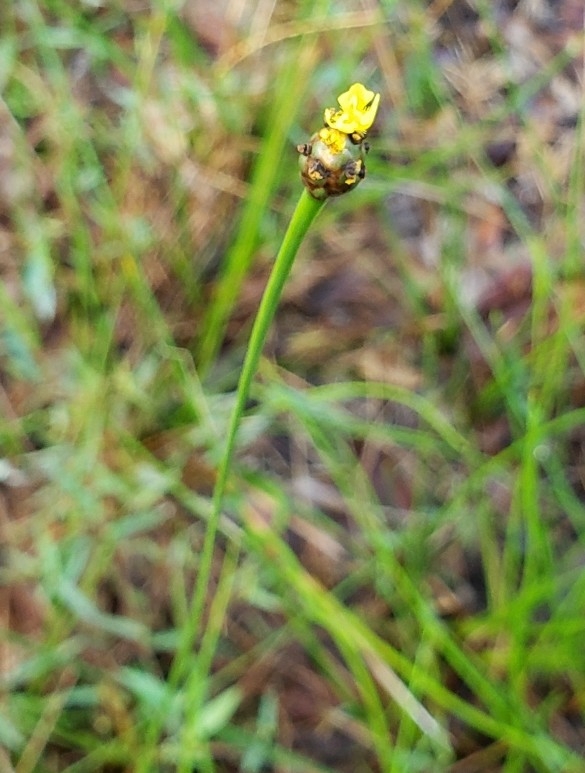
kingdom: Plantae
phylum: Tracheophyta
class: Liliopsida
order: Poales
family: Xyridaceae
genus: Xyris
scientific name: Xyris jupicai
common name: Richard's yelloweyed grass
